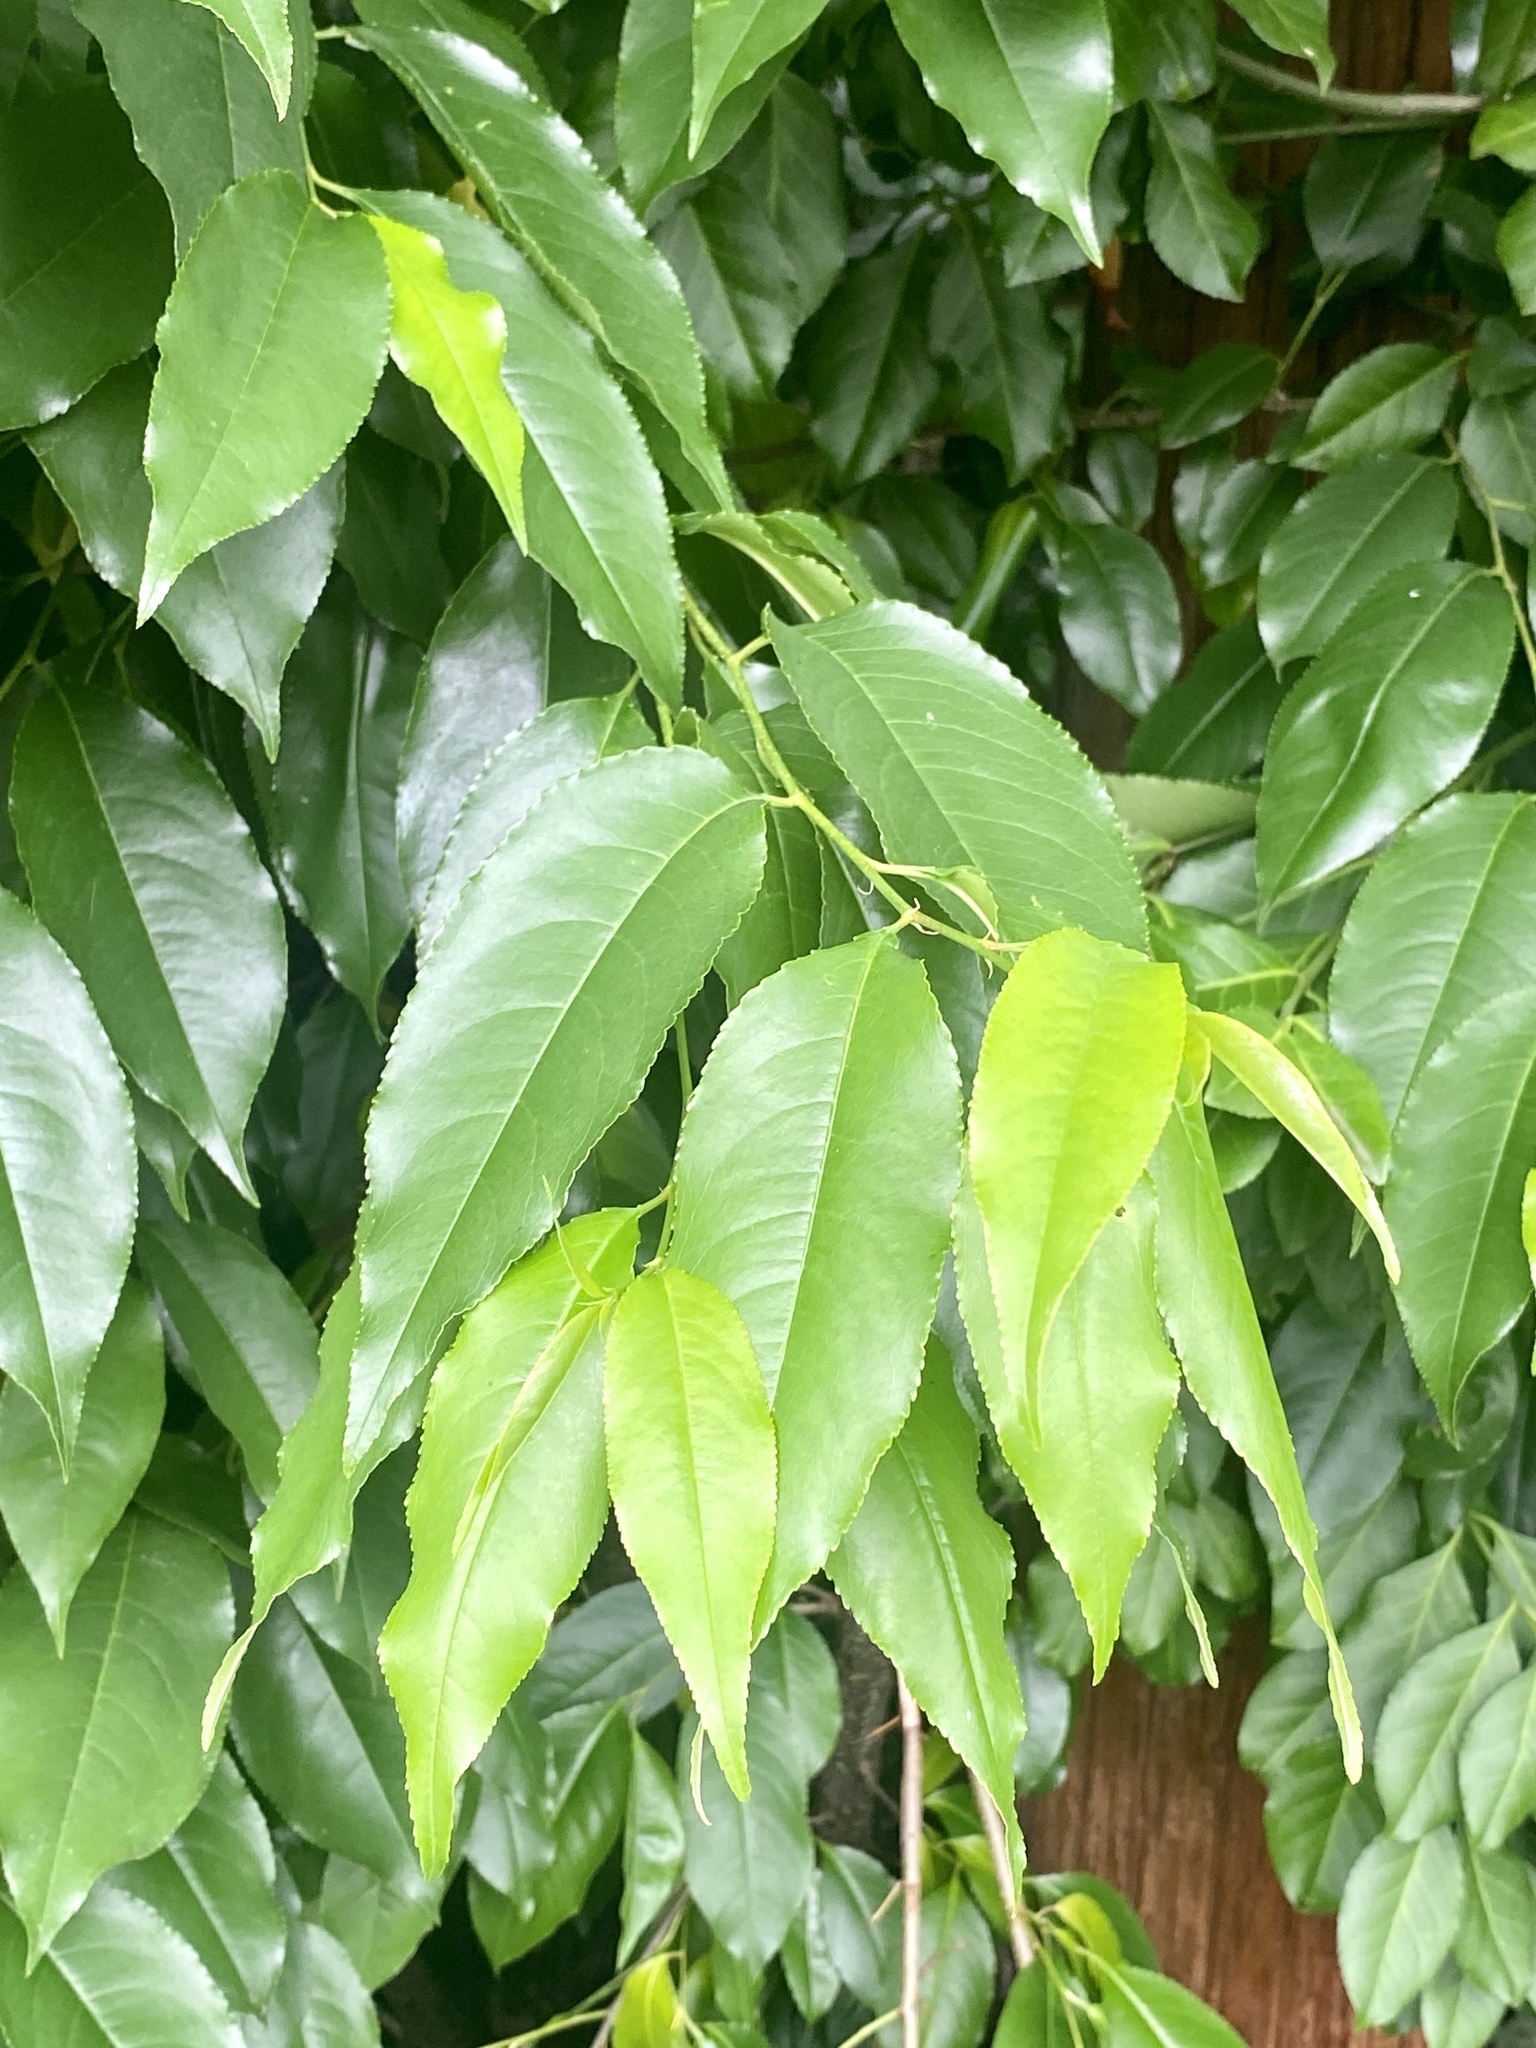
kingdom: Plantae
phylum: Tracheophyta
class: Magnoliopsida
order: Rosales
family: Rosaceae
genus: Prunus
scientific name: Prunus serotina
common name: Black cherry
